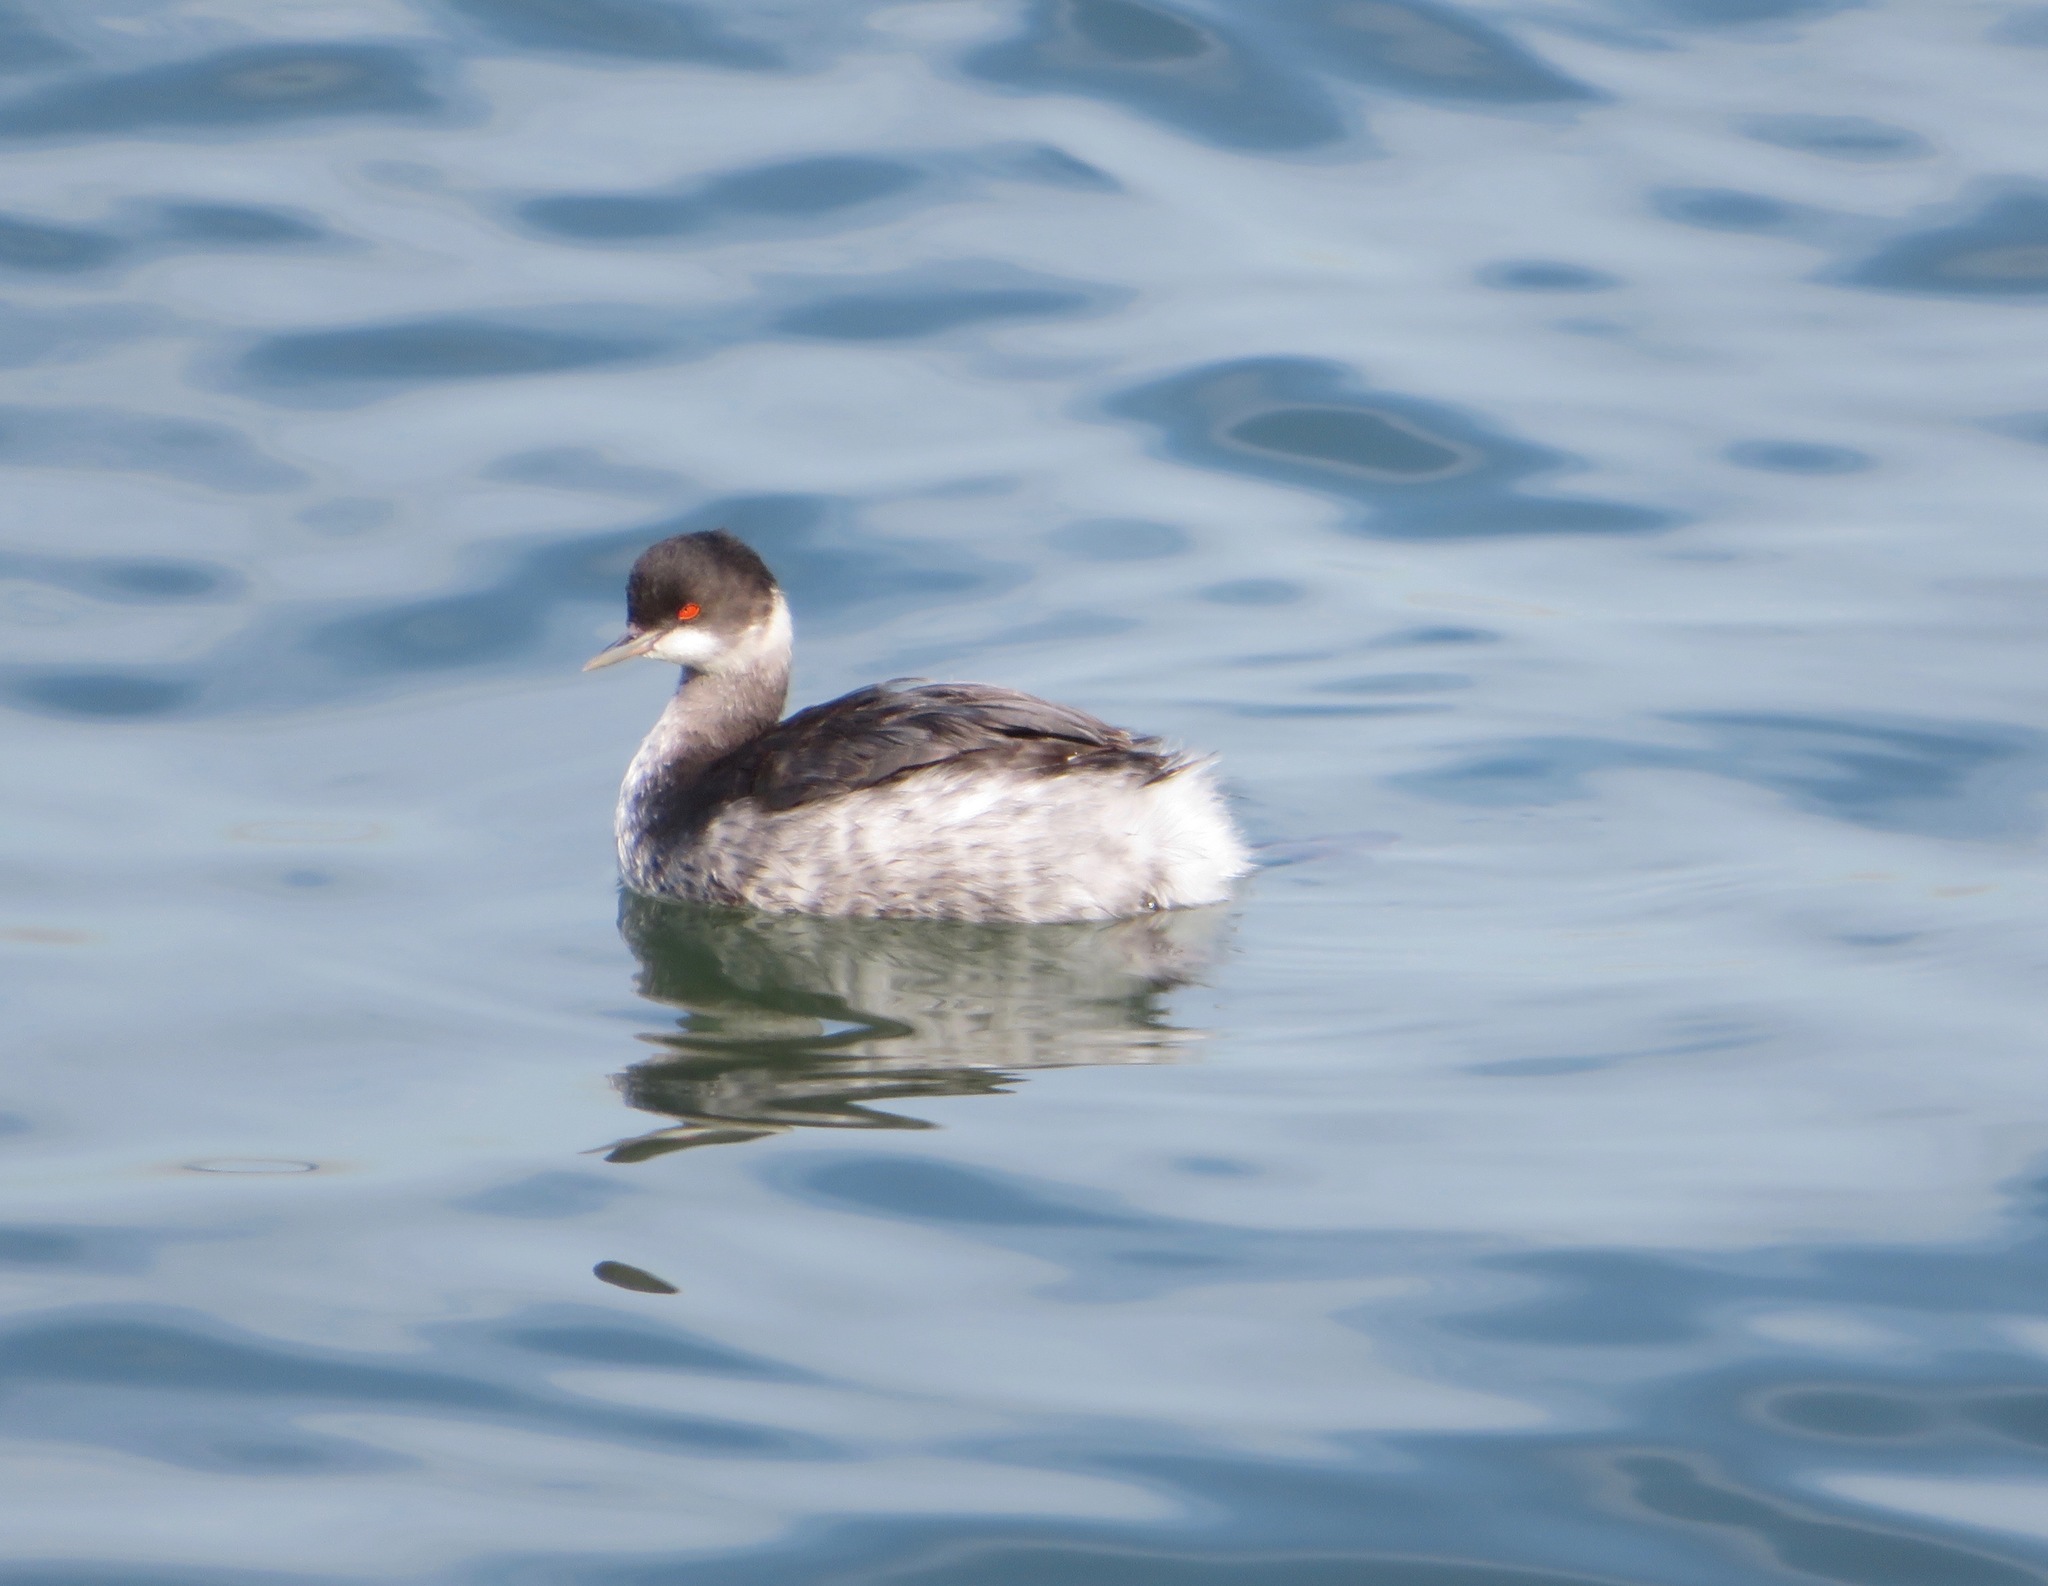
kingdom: Animalia
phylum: Chordata
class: Aves
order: Podicipediformes
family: Podicipedidae
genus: Podiceps
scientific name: Podiceps nigricollis
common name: Black-necked grebe
